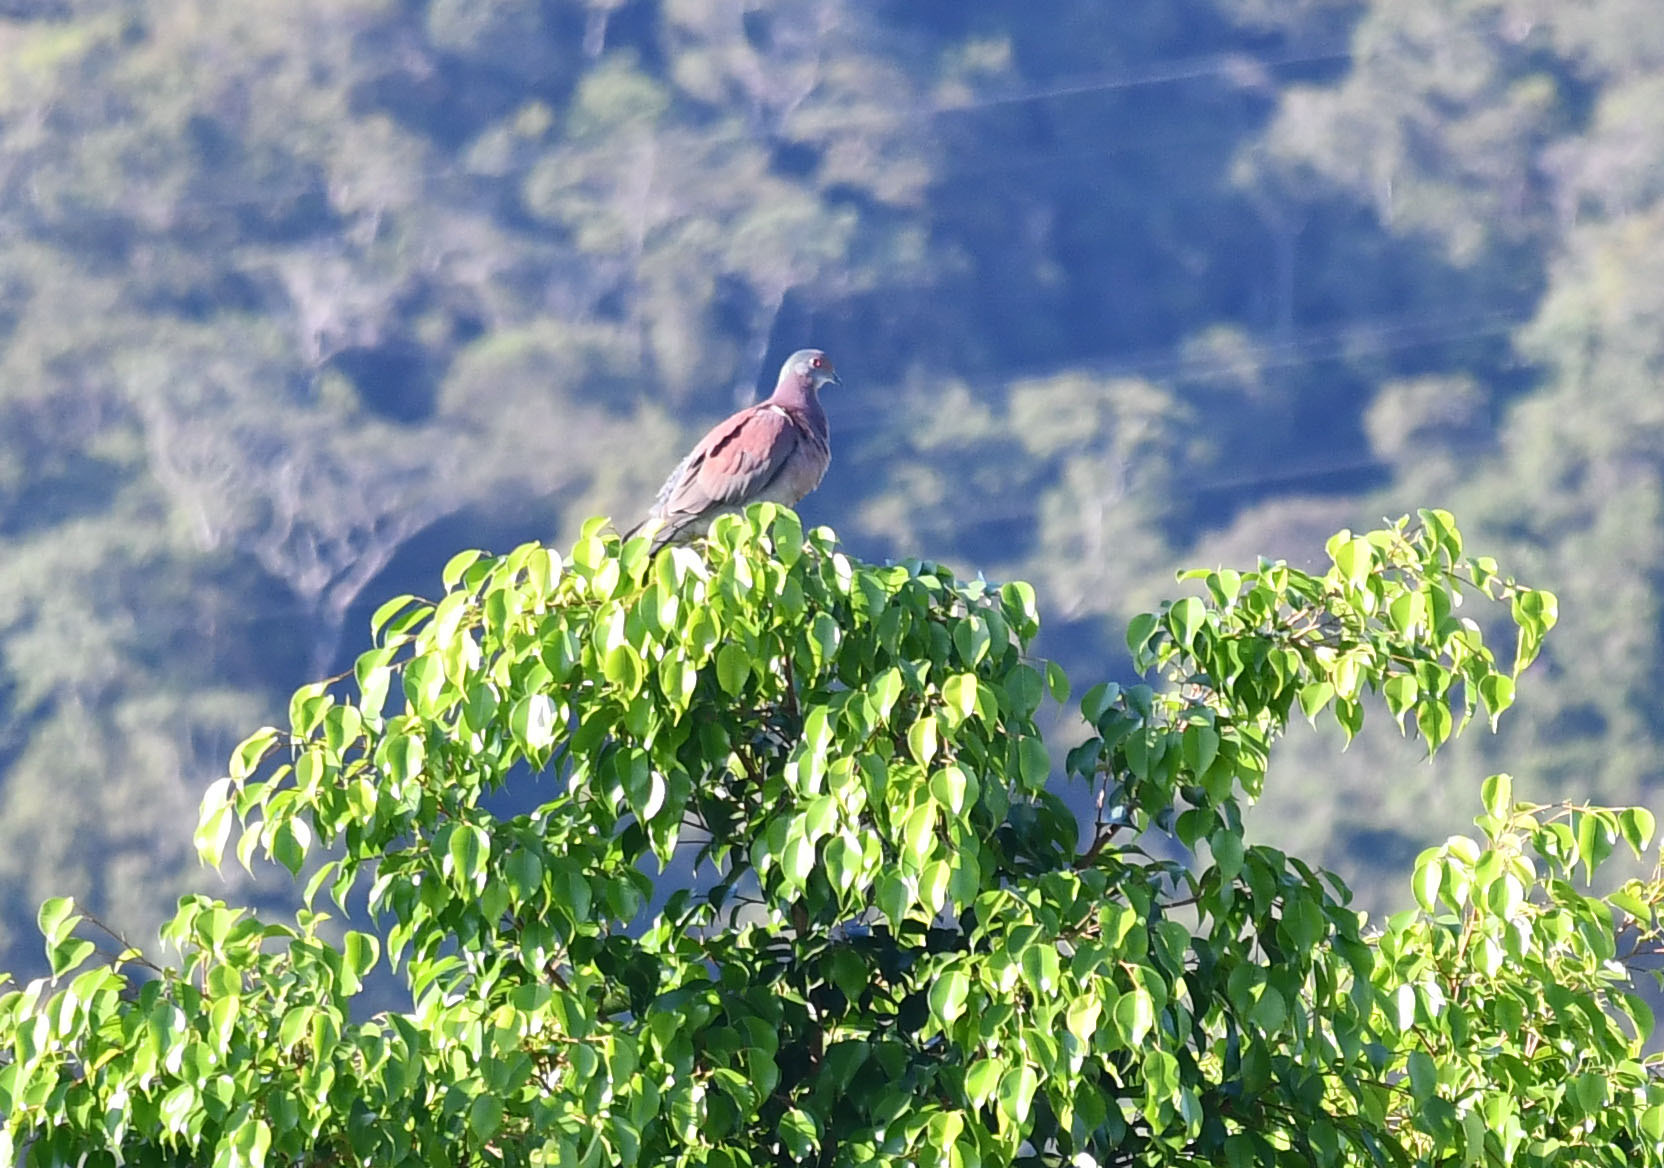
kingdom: Animalia
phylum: Chordata
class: Aves
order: Columbiformes
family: Columbidae
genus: Patagioenas
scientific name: Patagioenas cayennensis
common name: Pale-vented pigeon
